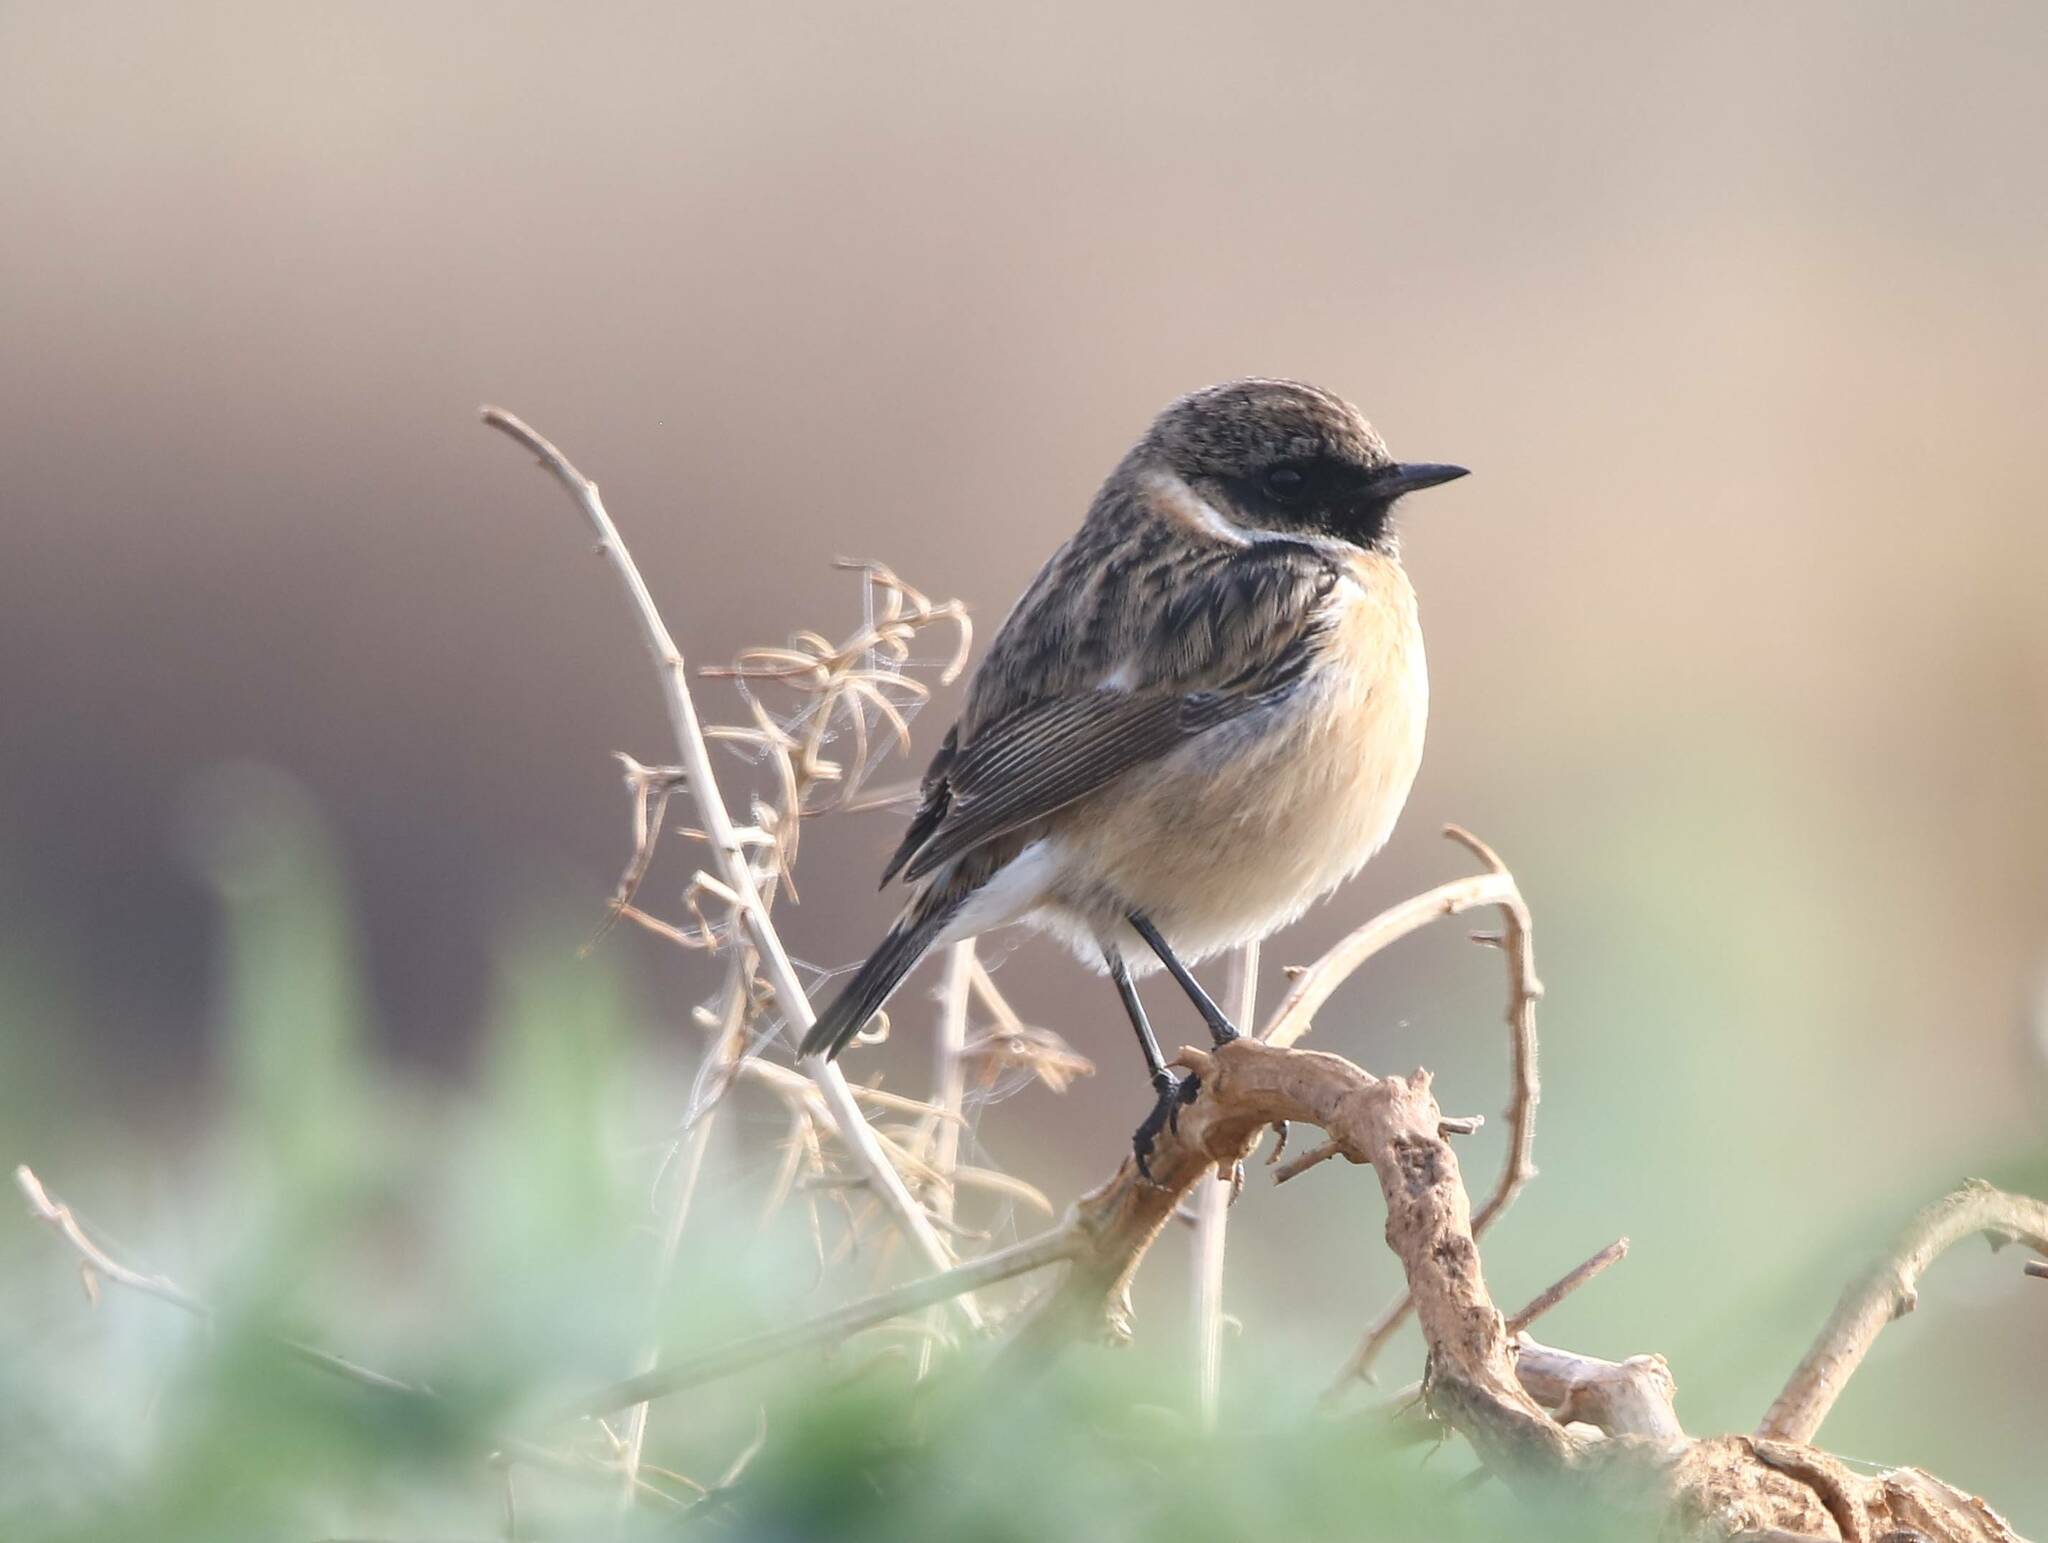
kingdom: Animalia
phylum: Chordata
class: Aves
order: Passeriformes
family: Muscicapidae
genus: Saxicola
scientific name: Saxicola rubicola
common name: European stonechat
